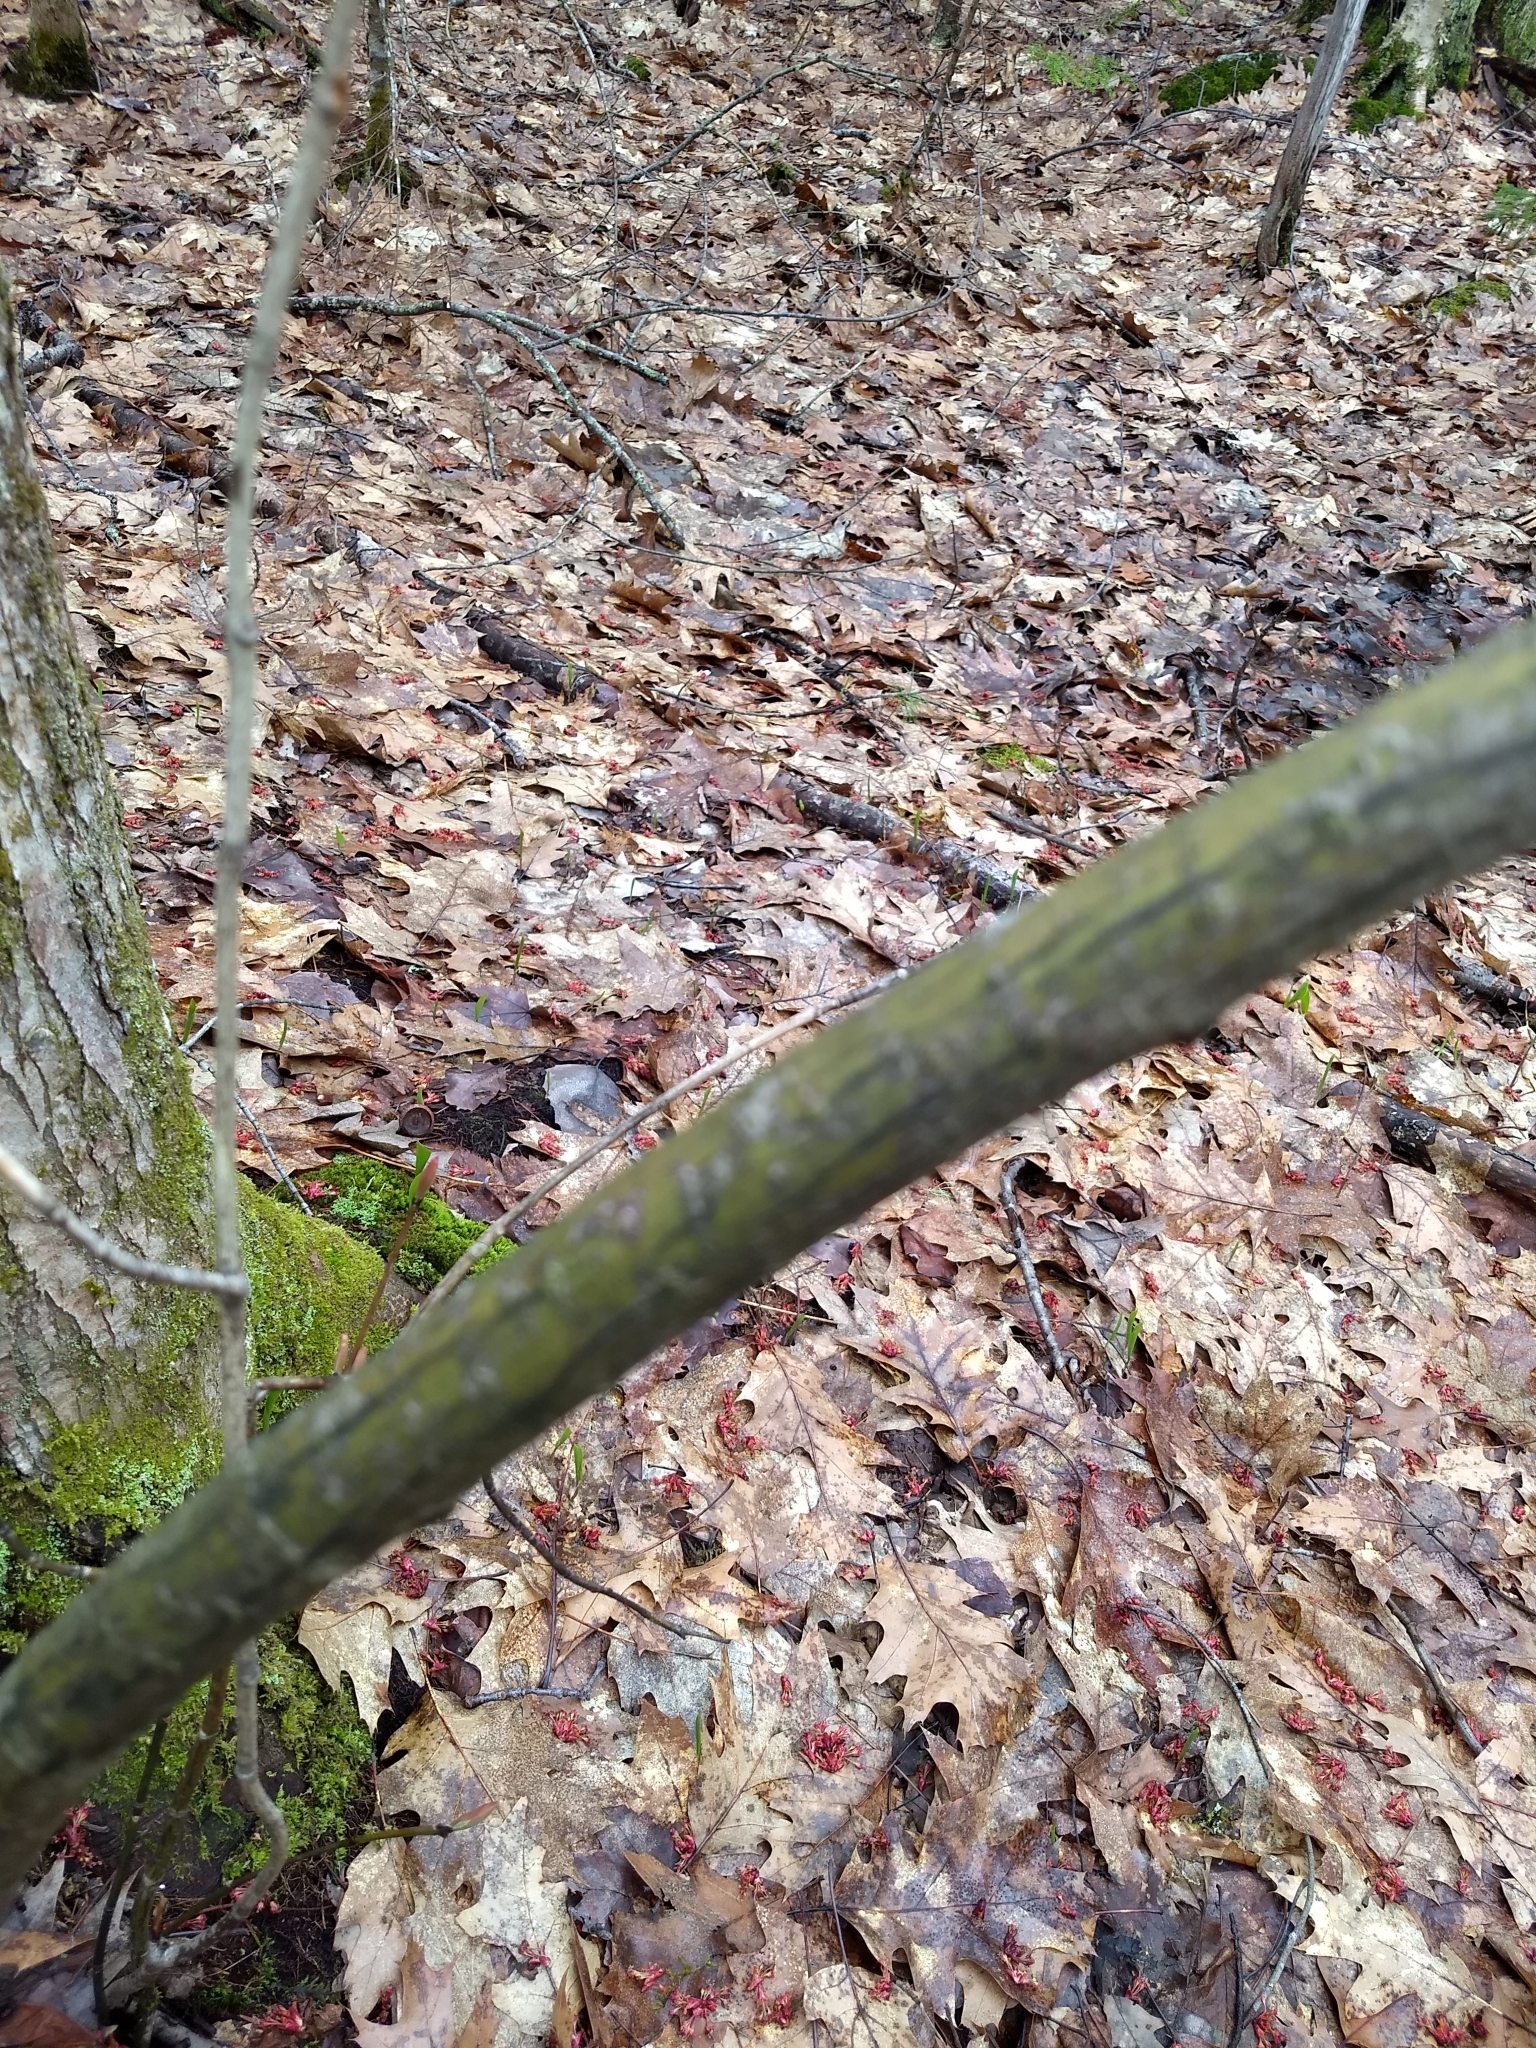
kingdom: Plantae
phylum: Tracheophyta
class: Magnoliopsida
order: Sapindales
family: Sapindaceae
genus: Acer
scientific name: Acer pensylvanicum
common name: Moosewood
